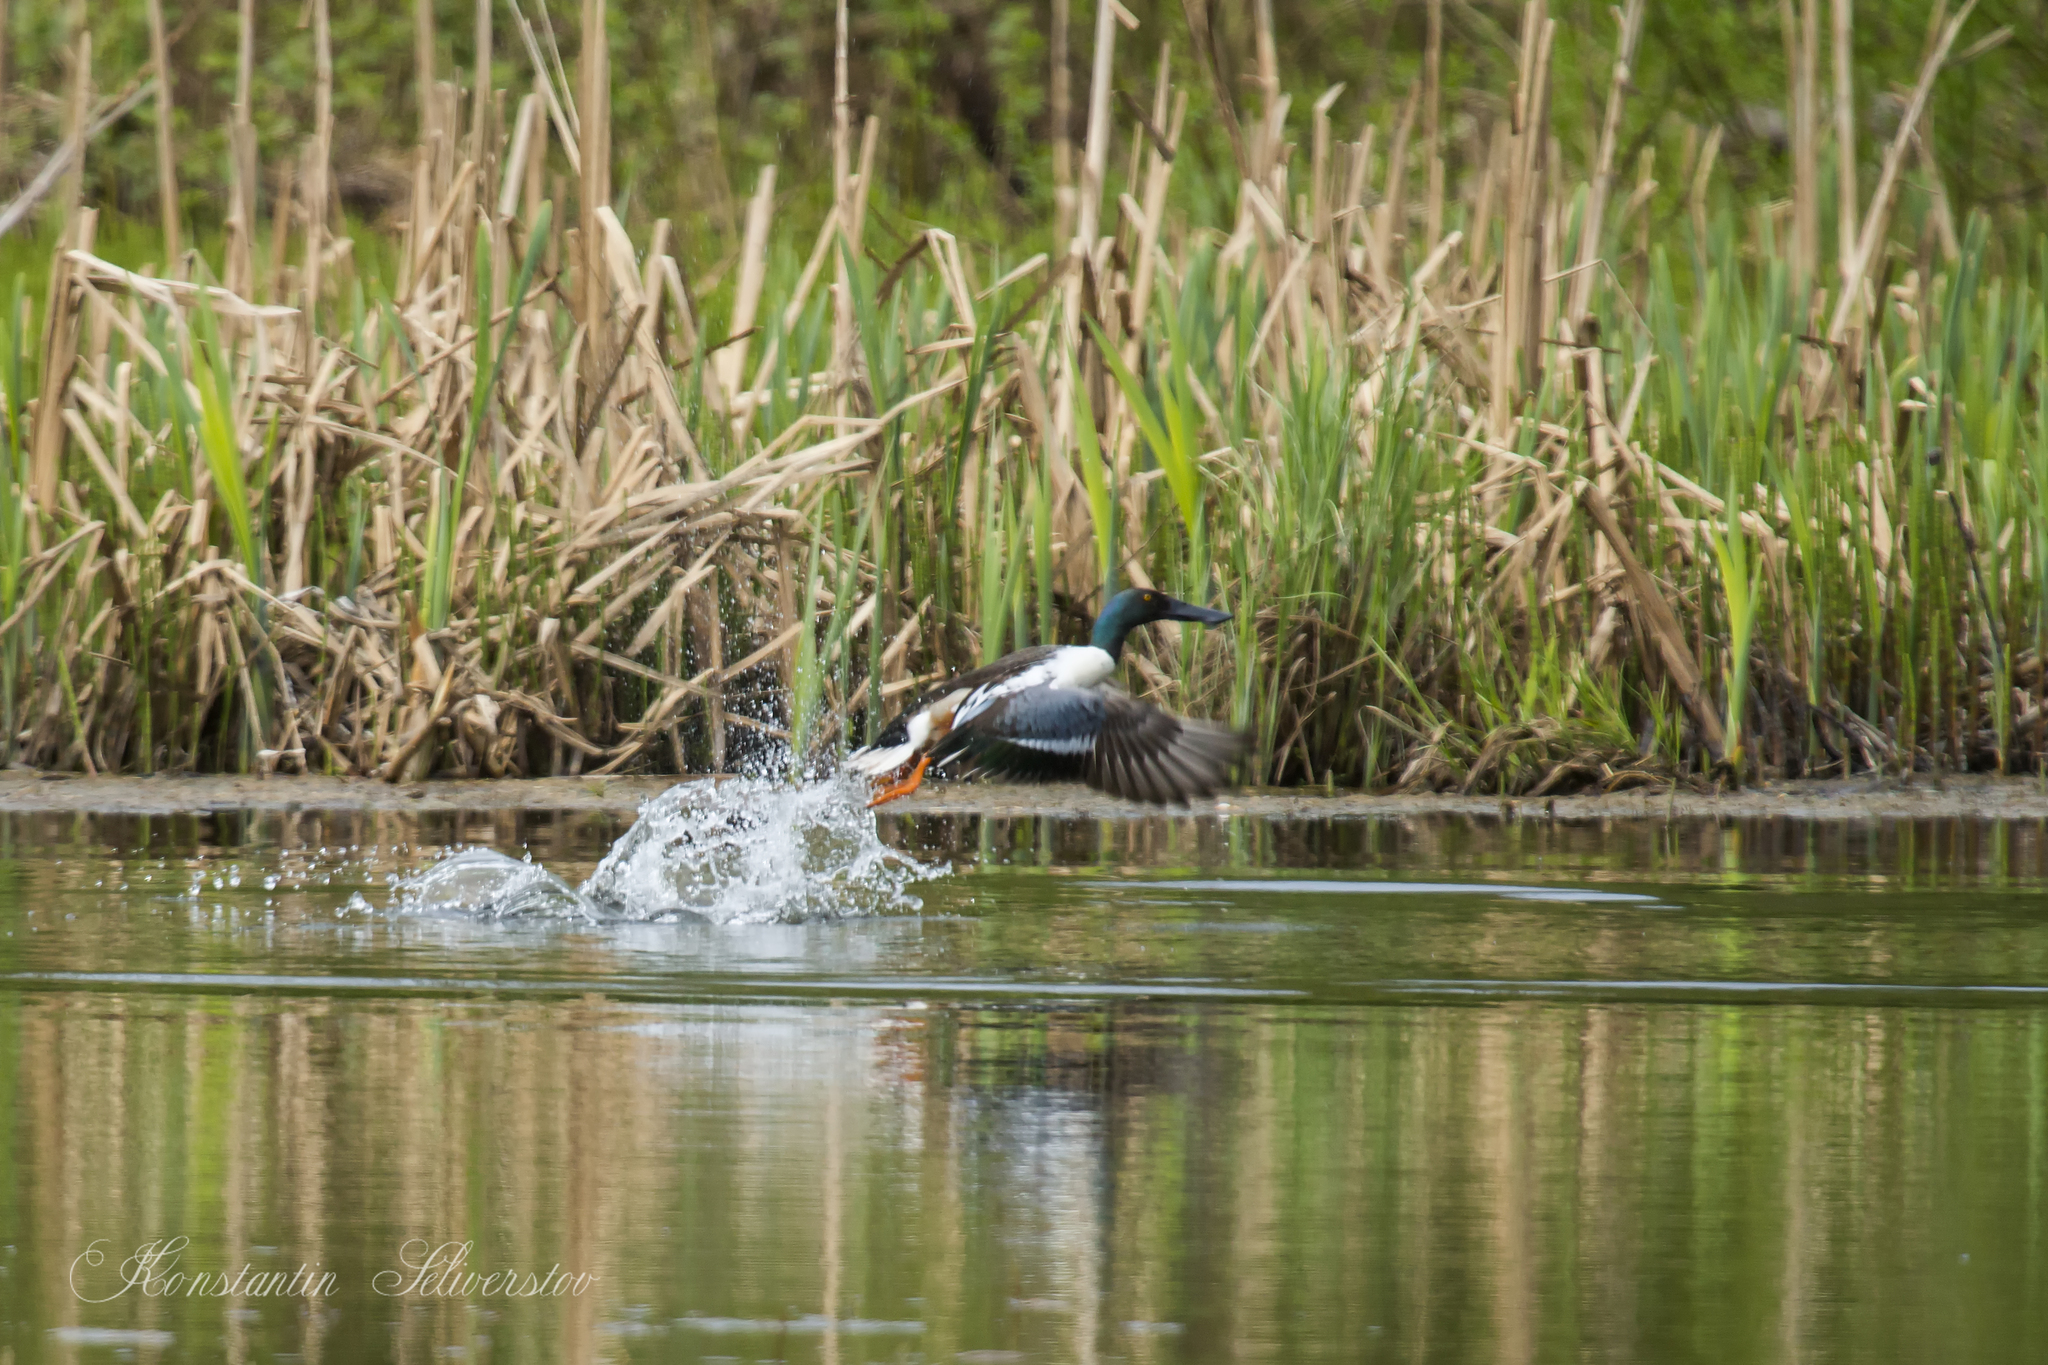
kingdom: Animalia
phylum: Chordata
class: Aves
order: Anseriformes
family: Anatidae
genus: Spatula
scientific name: Spatula clypeata
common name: Northern shoveler
